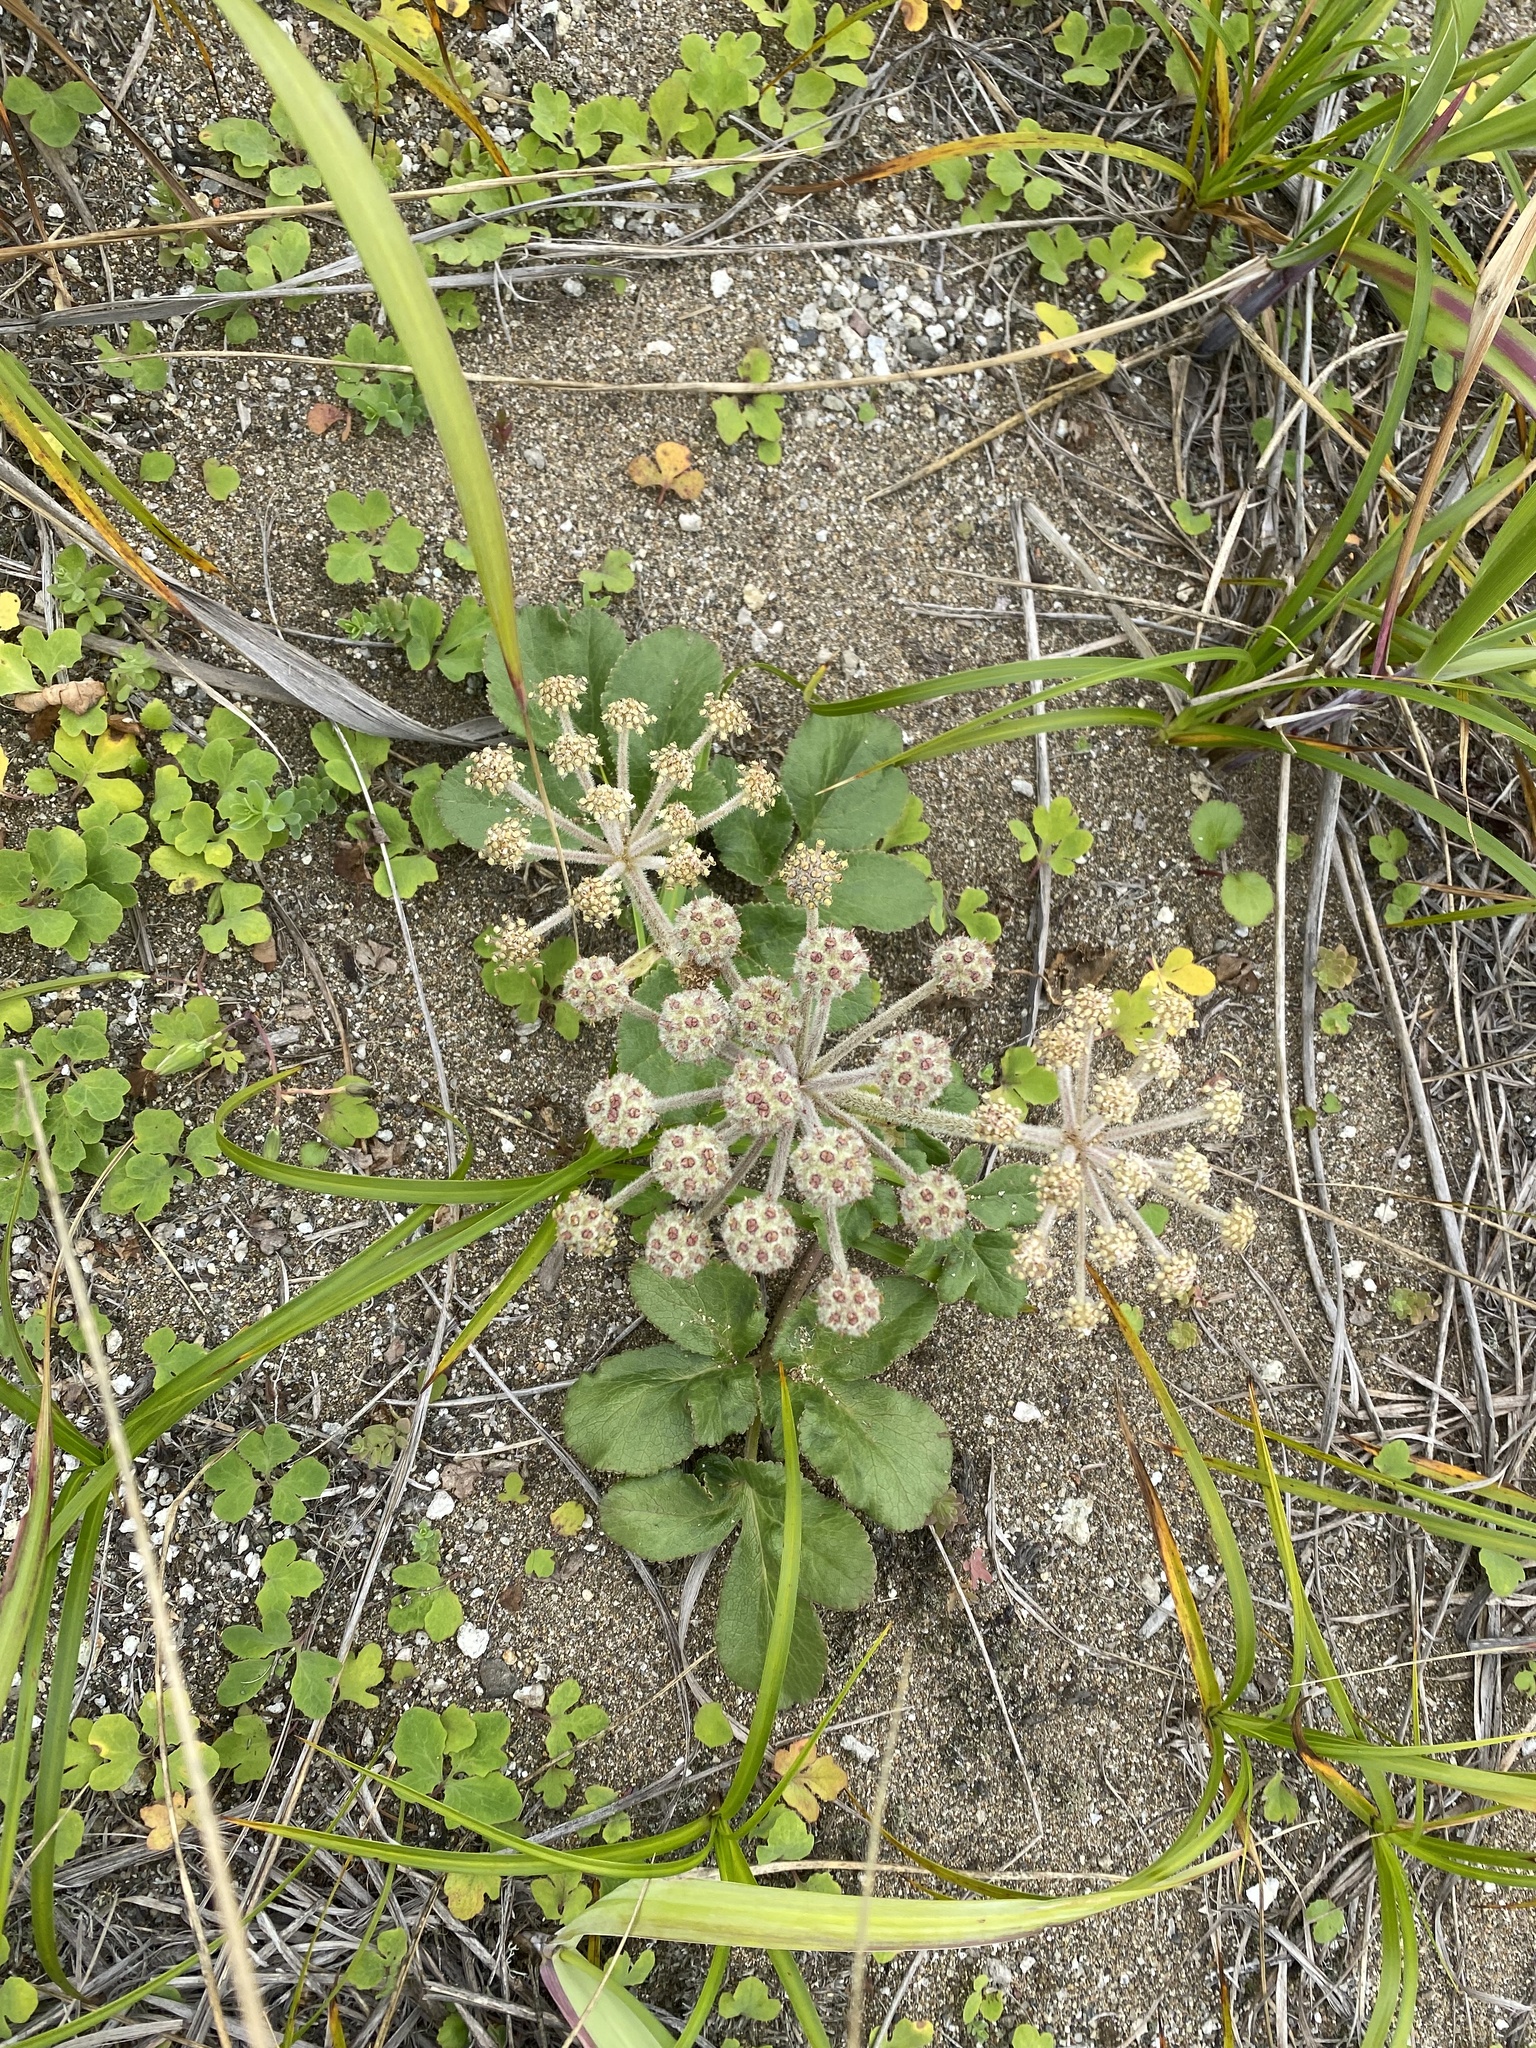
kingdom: Plantae
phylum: Tracheophyta
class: Magnoliopsida
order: Apiales
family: Apiaceae
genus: Glehnia
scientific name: Glehnia littoralis
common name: Beach silvertop
